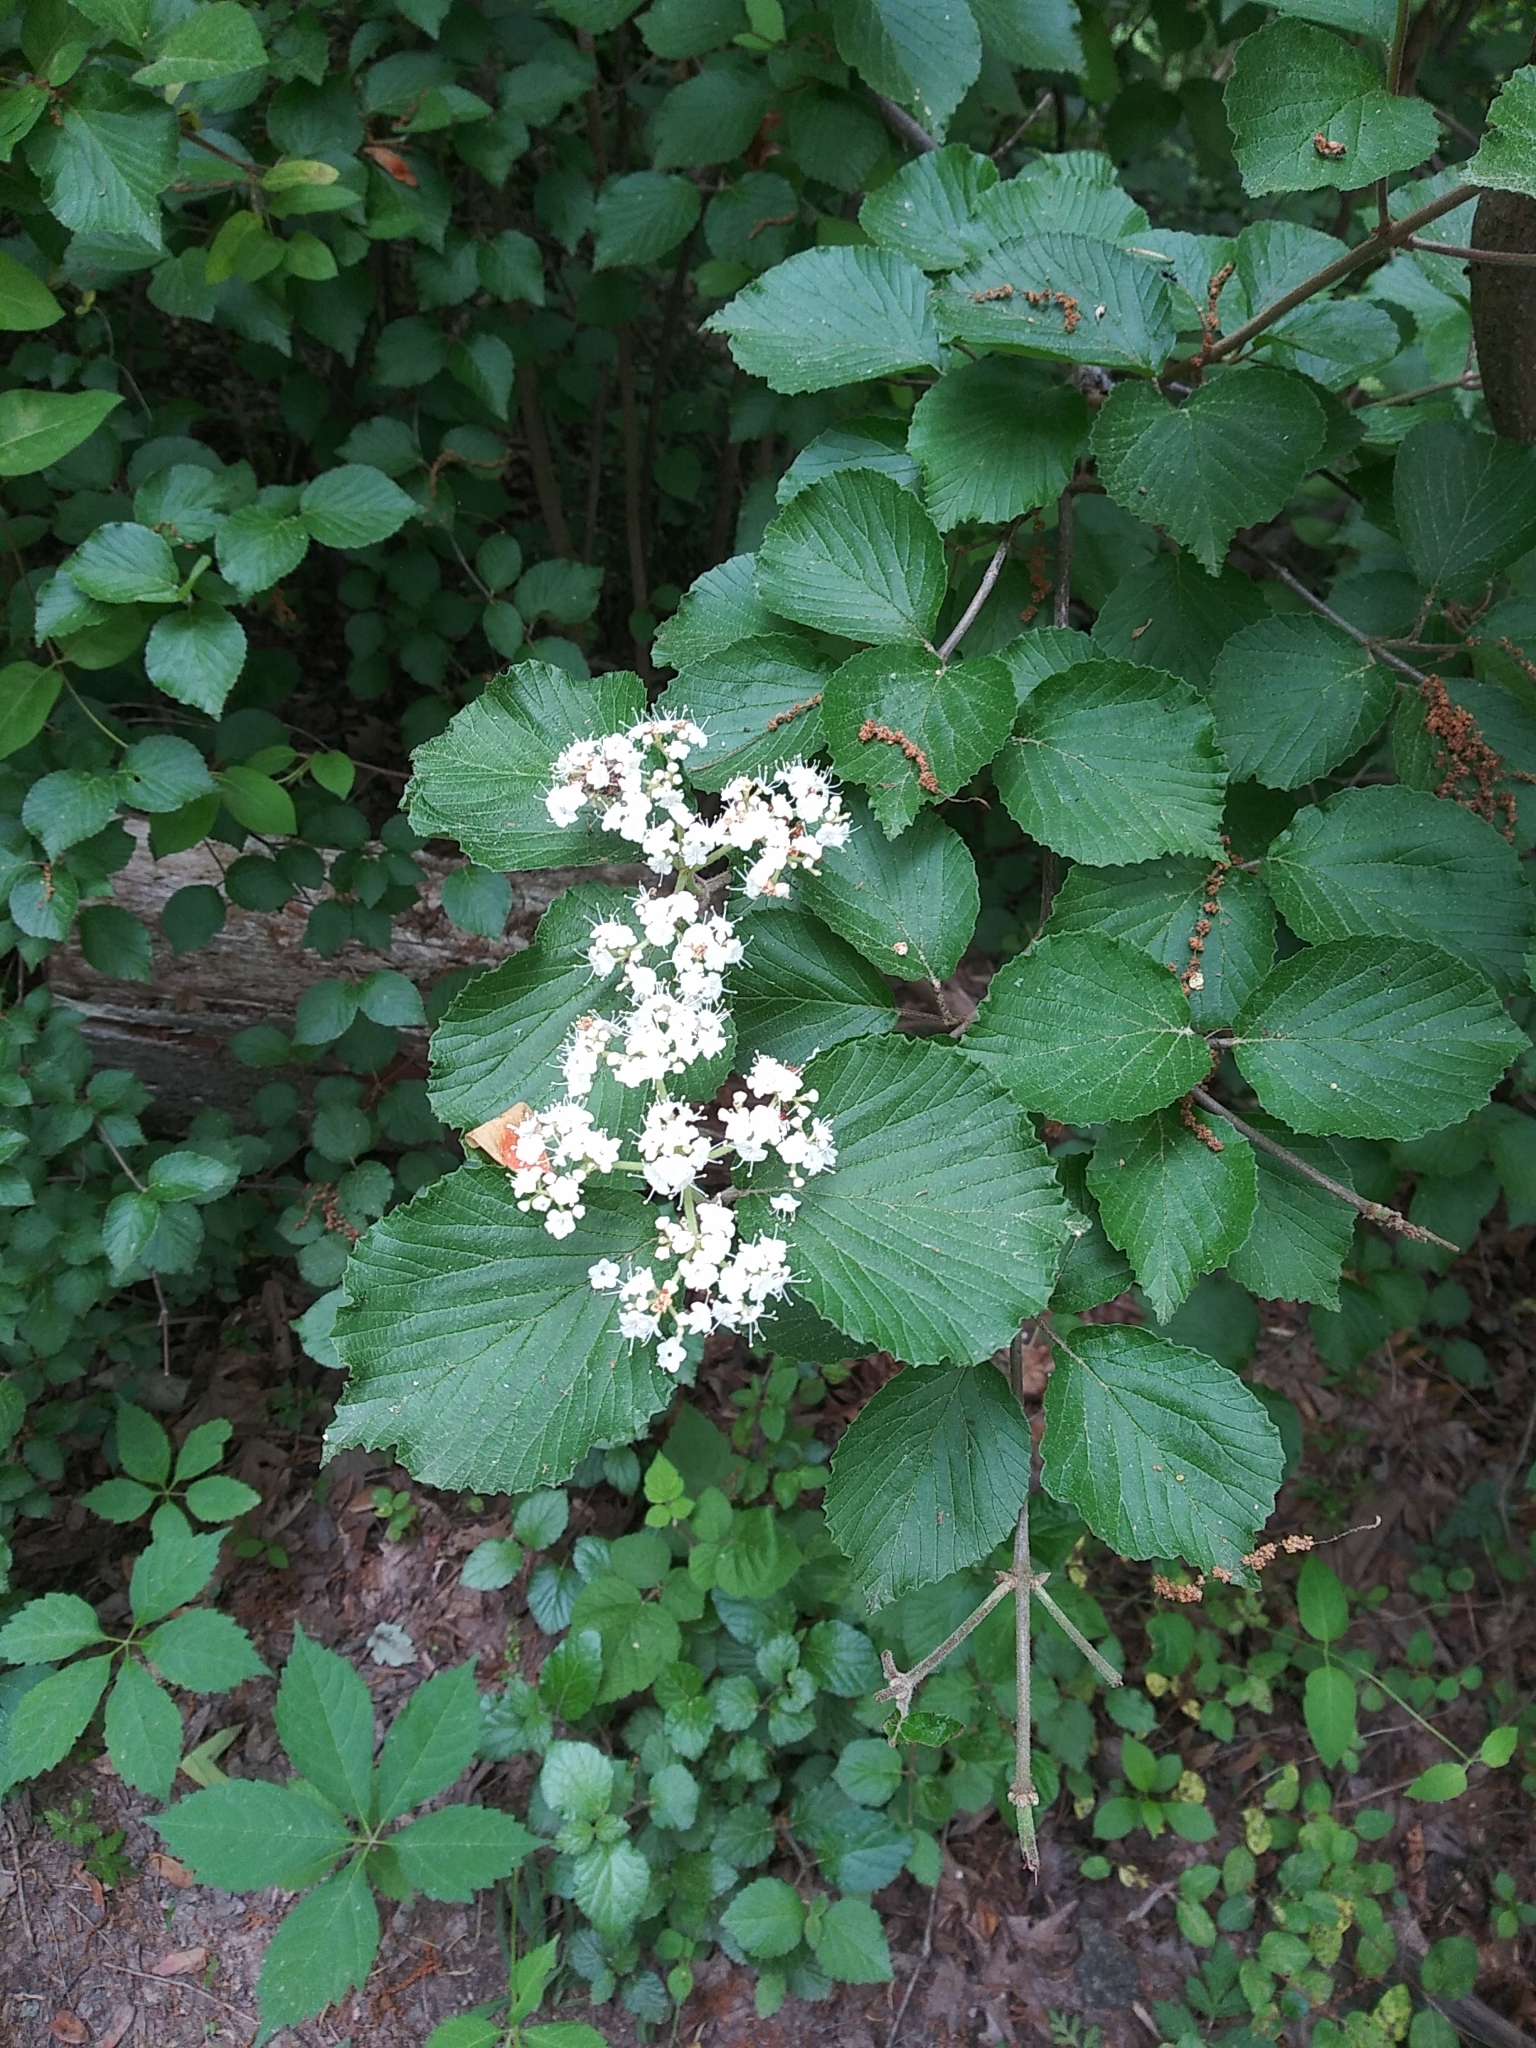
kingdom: Plantae
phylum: Tracheophyta
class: Magnoliopsida
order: Dipsacales
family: Viburnaceae
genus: Viburnum
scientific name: Viburnum dilatatum
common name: Linden arrowwood
